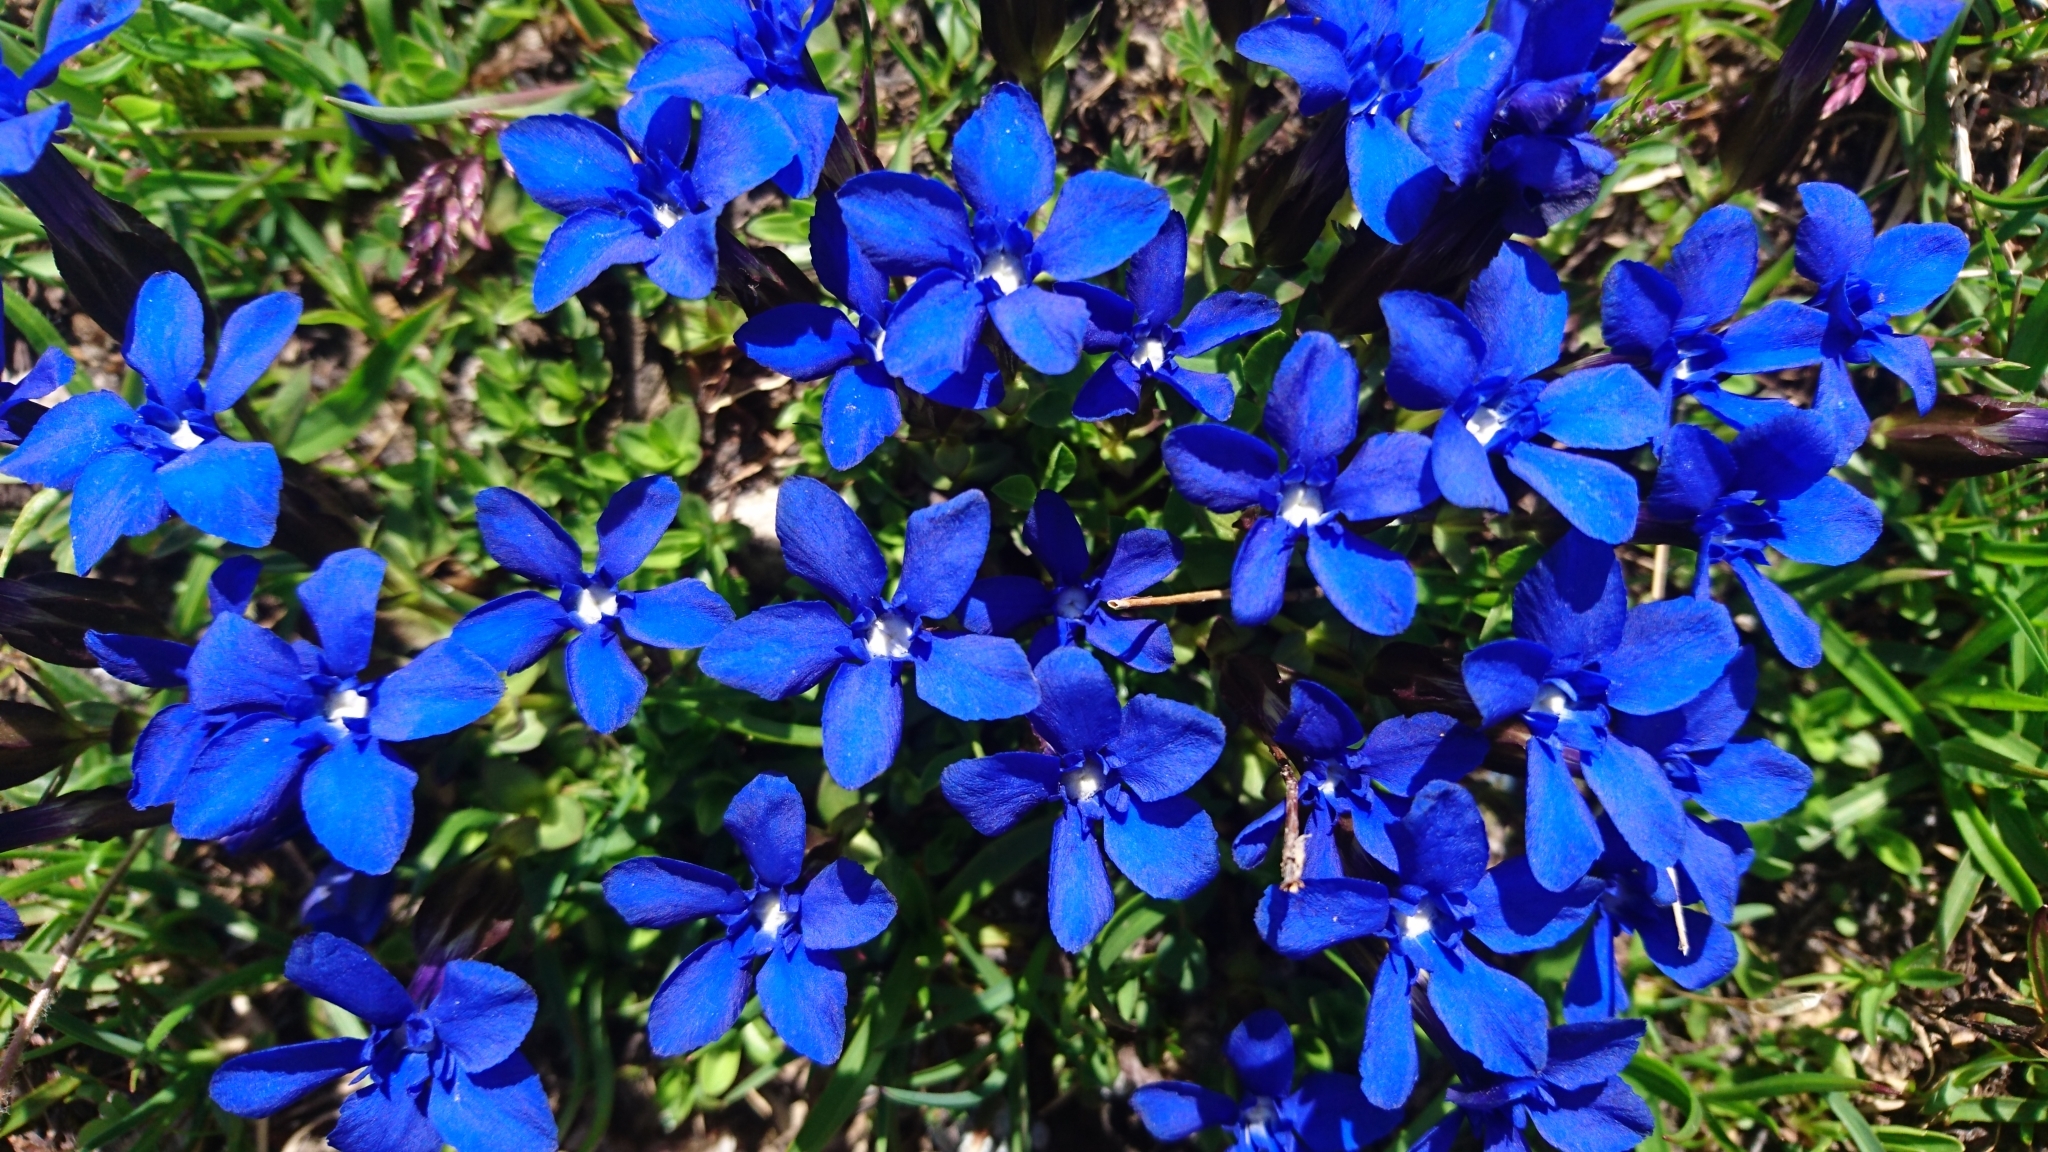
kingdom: Plantae
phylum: Tracheophyta
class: Magnoliopsida
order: Gentianales
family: Gentianaceae
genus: Gentiana
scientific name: Gentiana verna
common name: Spring gentian
